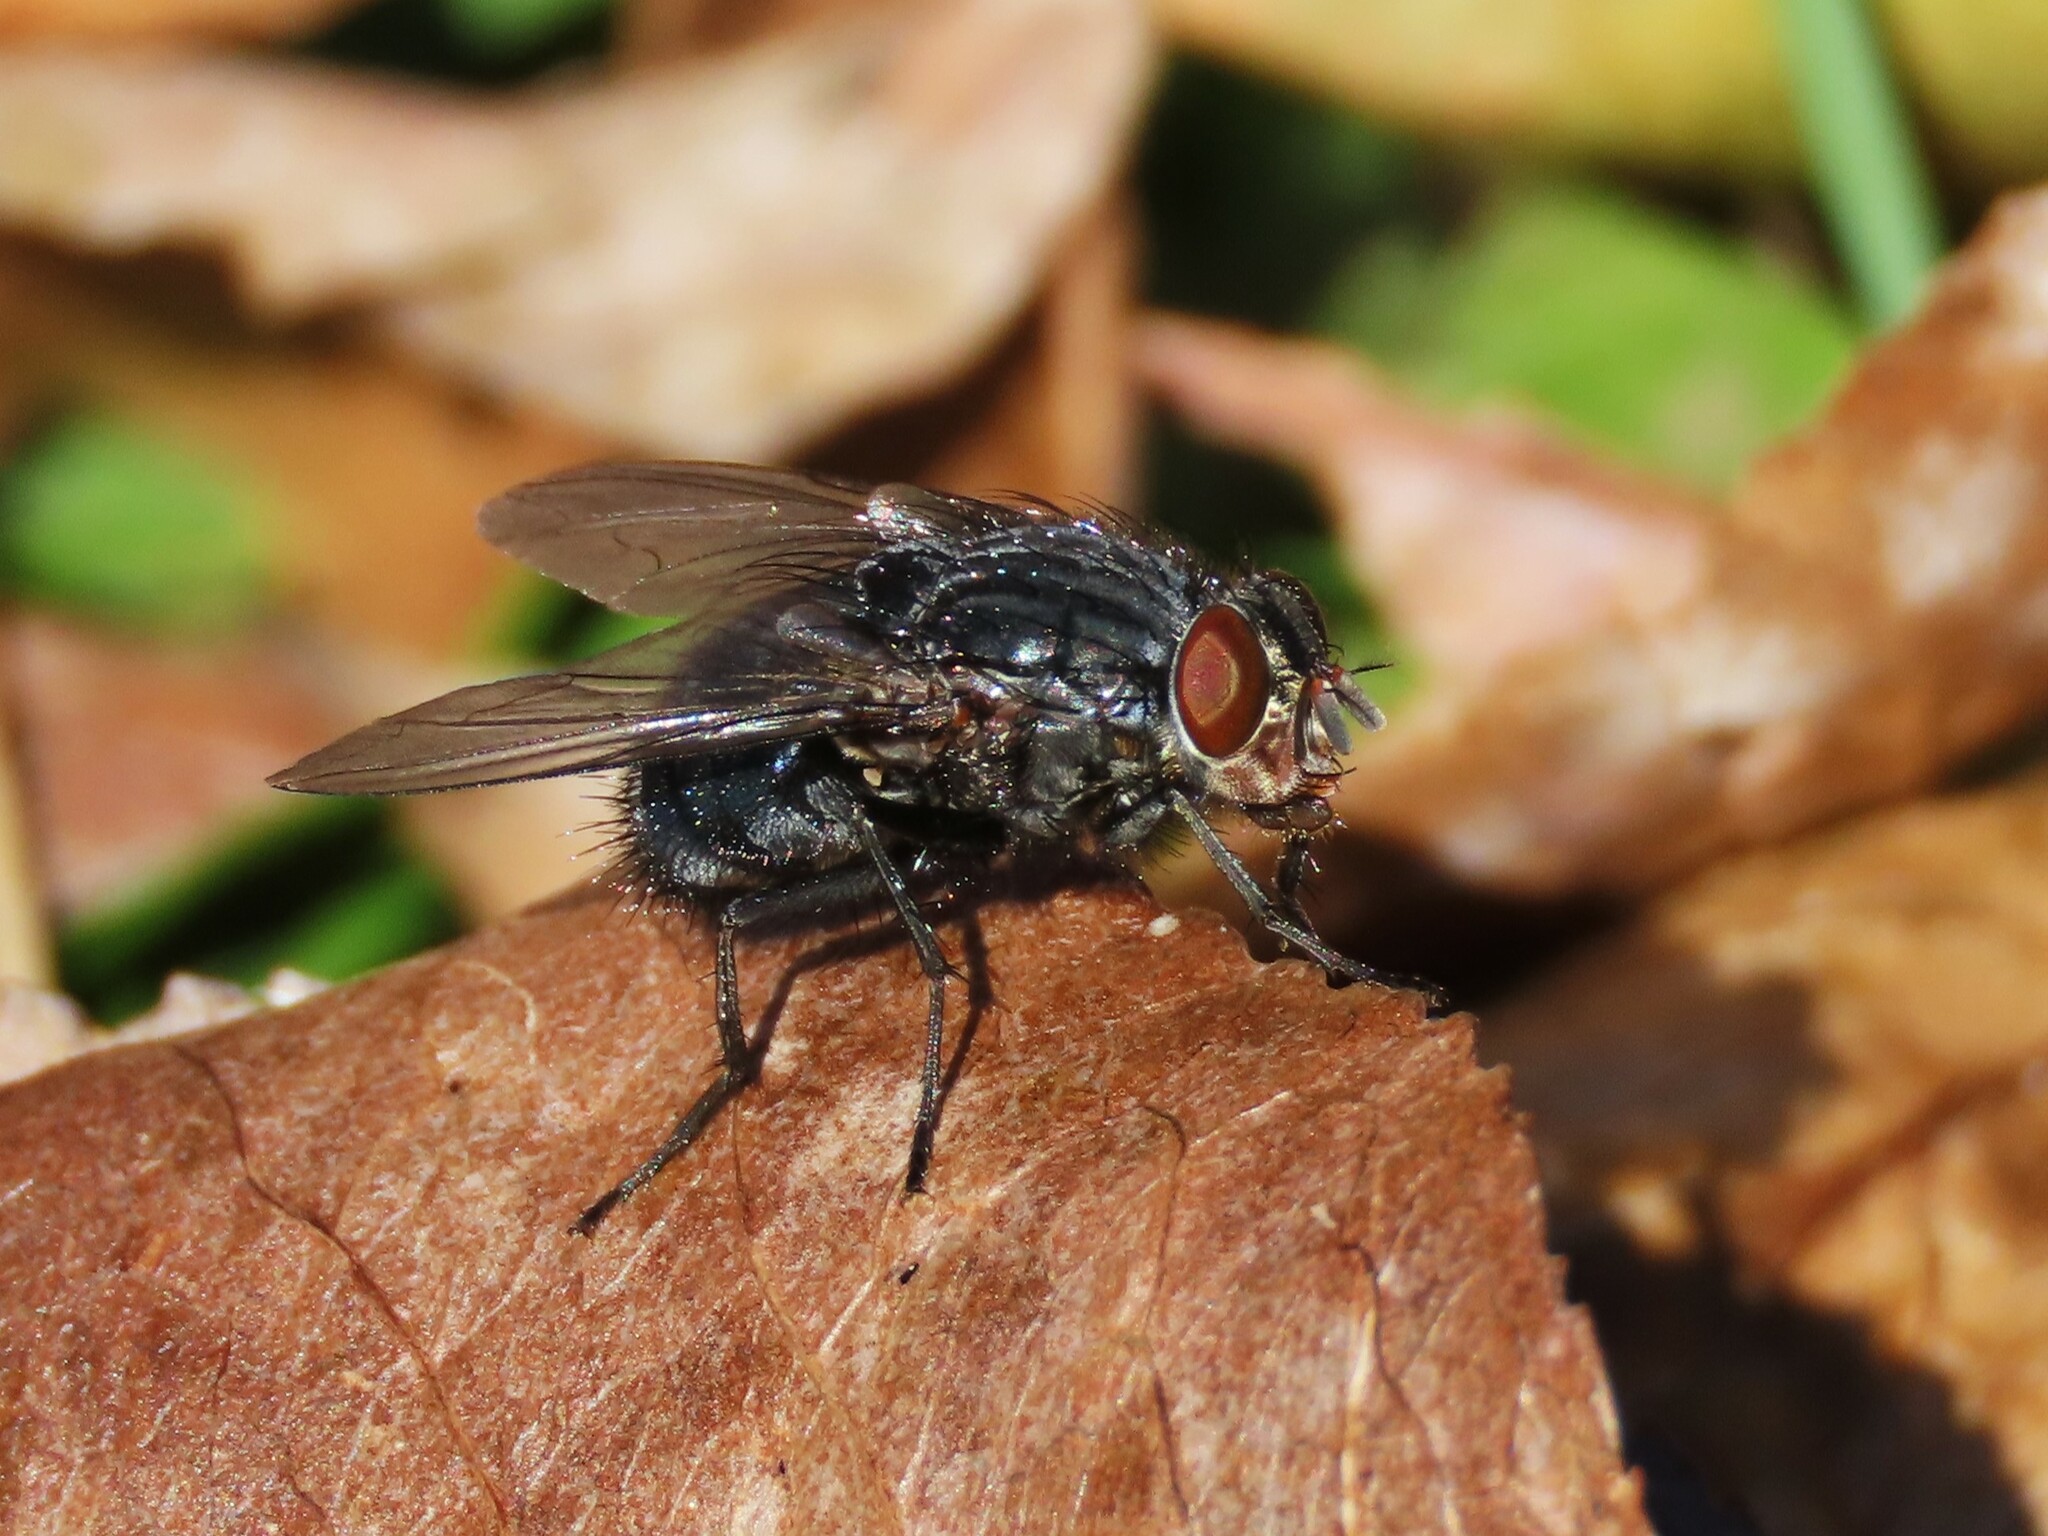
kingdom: Animalia
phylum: Arthropoda
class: Insecta
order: Diptera
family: Calliphoridae
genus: Calliphora
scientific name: Calliphora vicina
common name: Common blow flie
